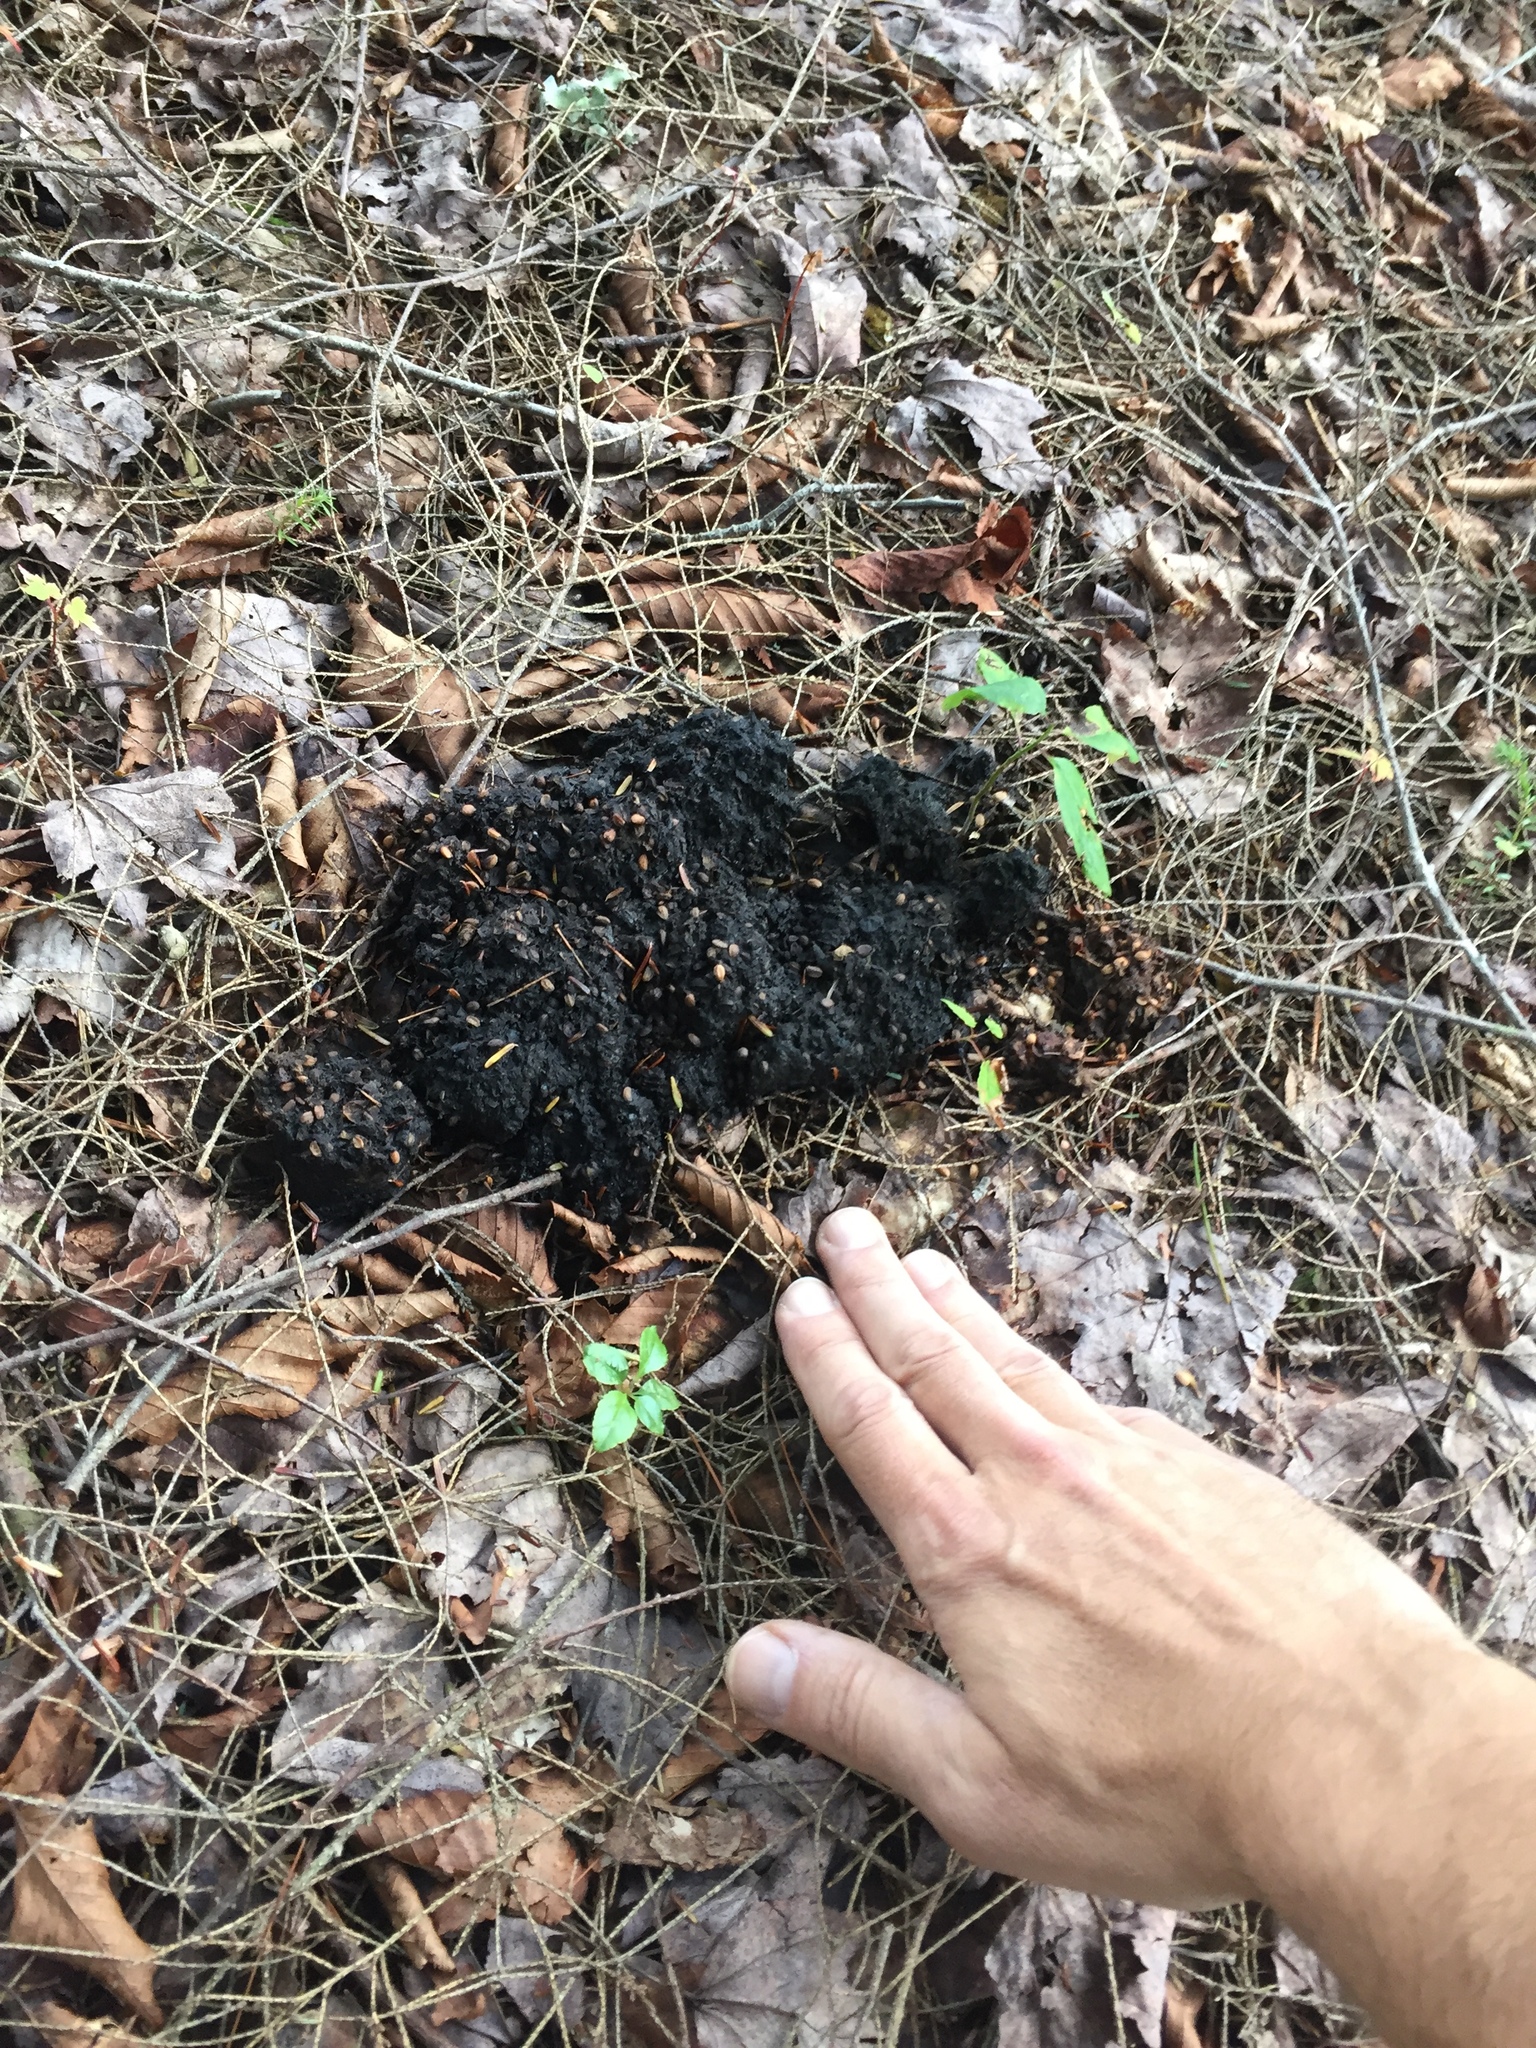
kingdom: Animalia
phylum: Chordata
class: Mammalia
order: Carnivora
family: Ursidae
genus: Ursus
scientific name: Ursus americanus
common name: American black bear
